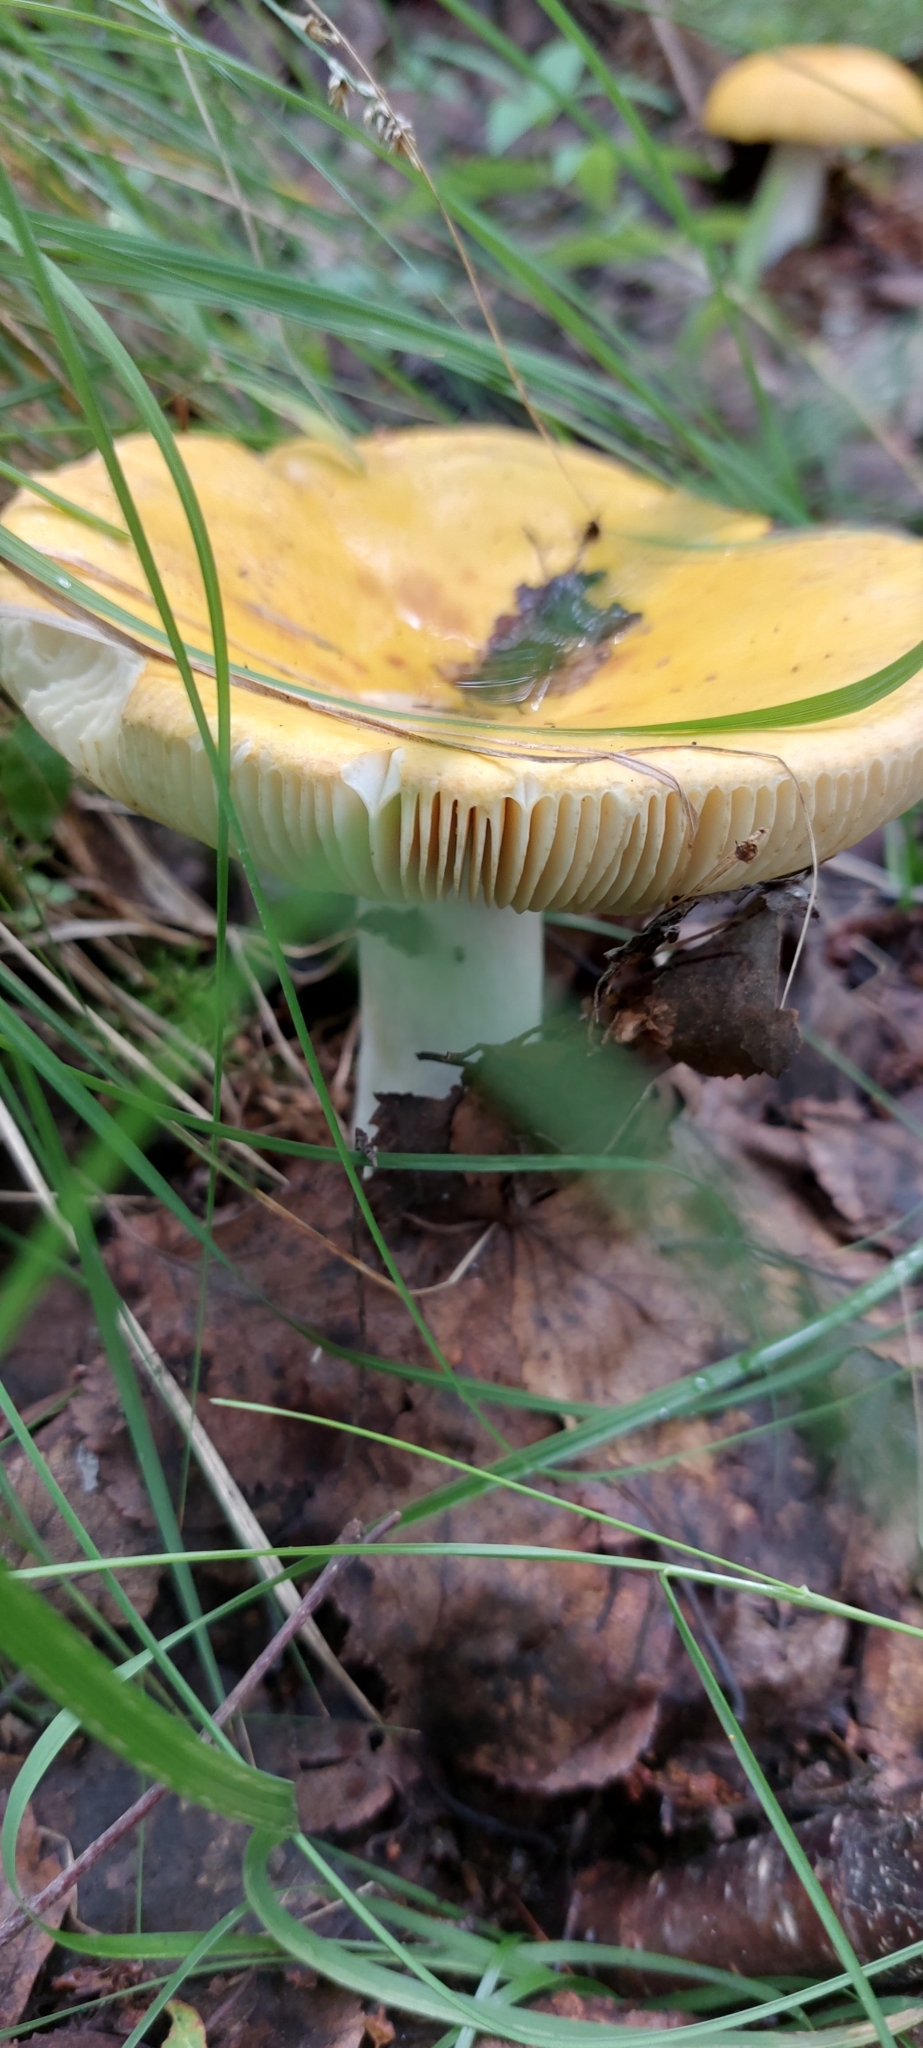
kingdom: Fungi
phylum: Basidiomycota
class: Agaricomycetes
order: Russulales
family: Russulaceae
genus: Russula
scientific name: Russula claroflava
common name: The yellow swamp brittlegill
